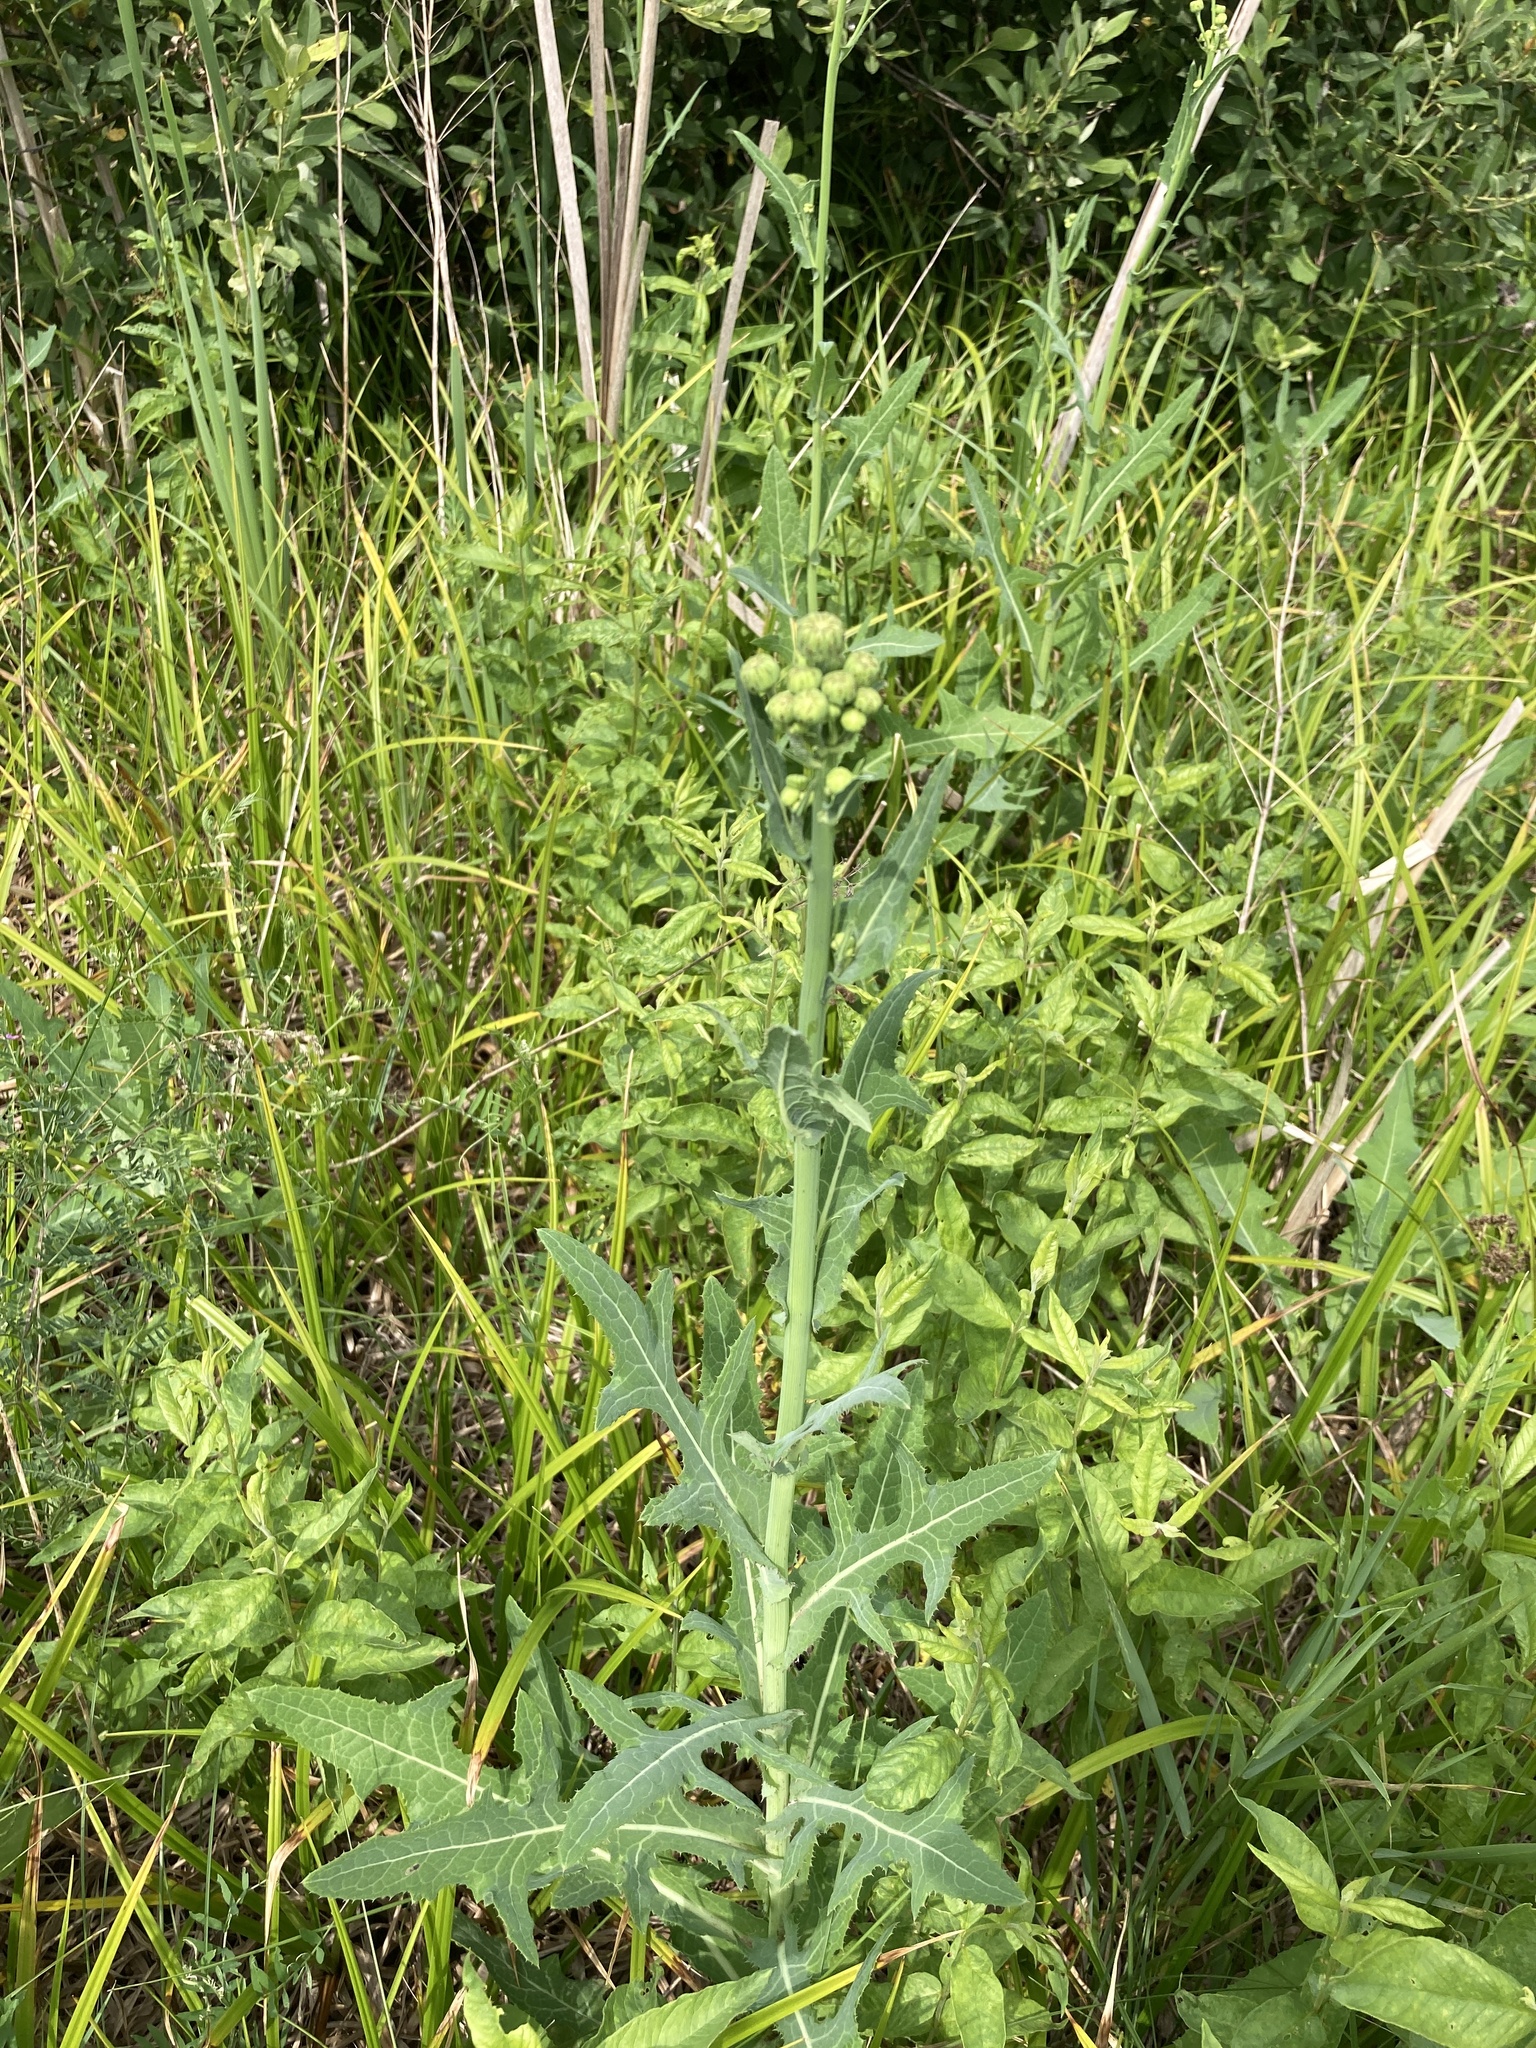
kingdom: Plantae
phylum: Tracheophyta
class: Magnoliopsida
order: Asterales
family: Asteraceae
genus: Sonchus
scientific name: Sonchus arvensis
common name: Perennial sow-thistle
